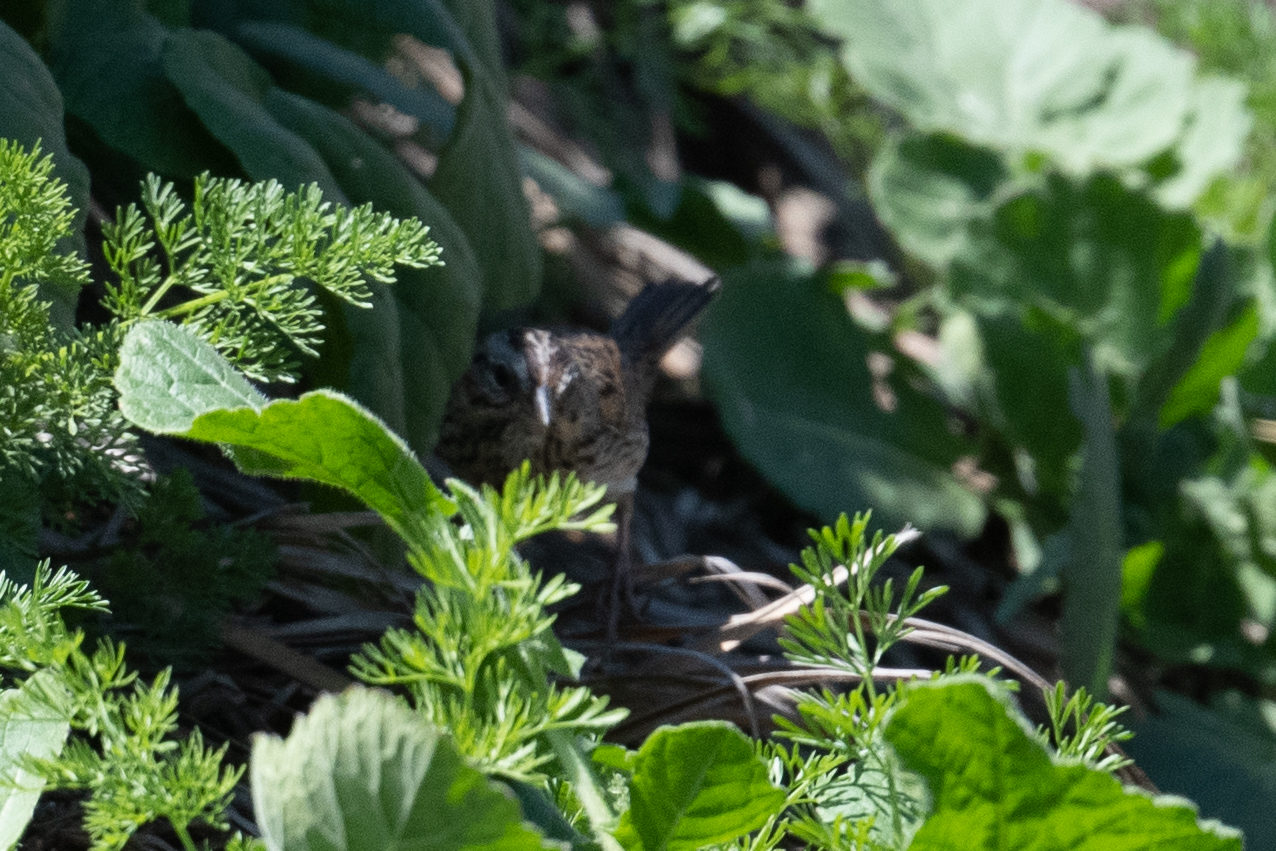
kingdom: Animalia
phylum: Chordata
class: Aves
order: Passeriformes
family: Passerellidae
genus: Melospiza
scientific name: Melospiza lincolnii
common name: Lincoln's sparrow
